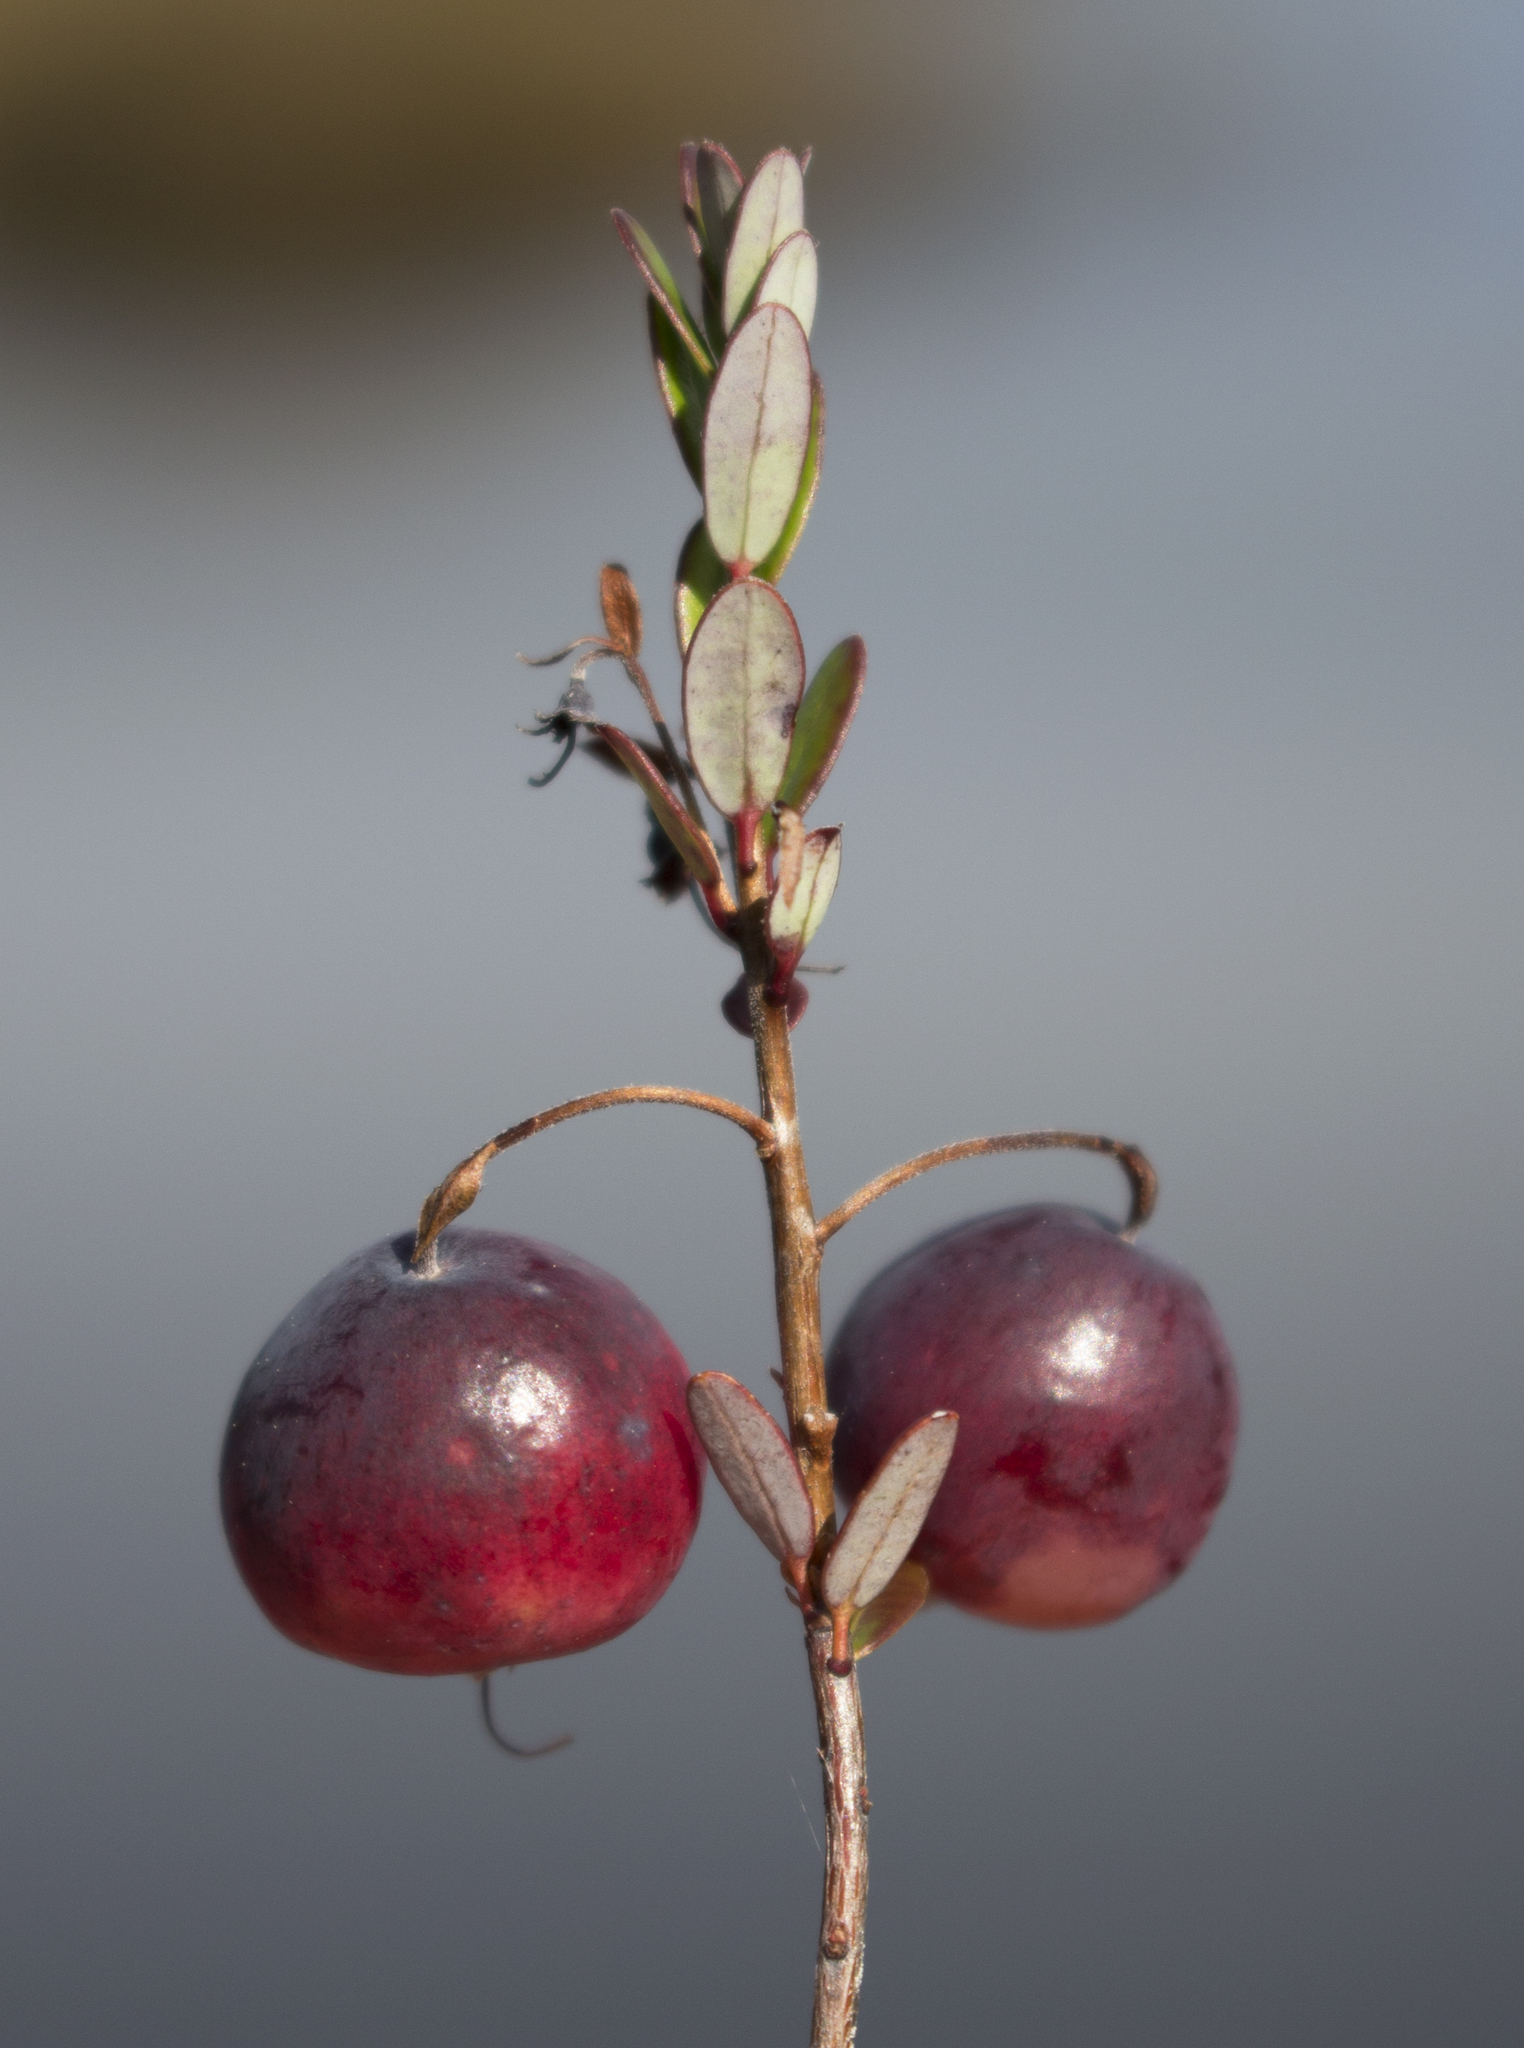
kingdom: Plantae
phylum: Tracheophyta
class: Magnoliopsida
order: Ericales
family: Ericaceae
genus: Vaccinium
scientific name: Vaccinium macrocarpon
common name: American cranberry
